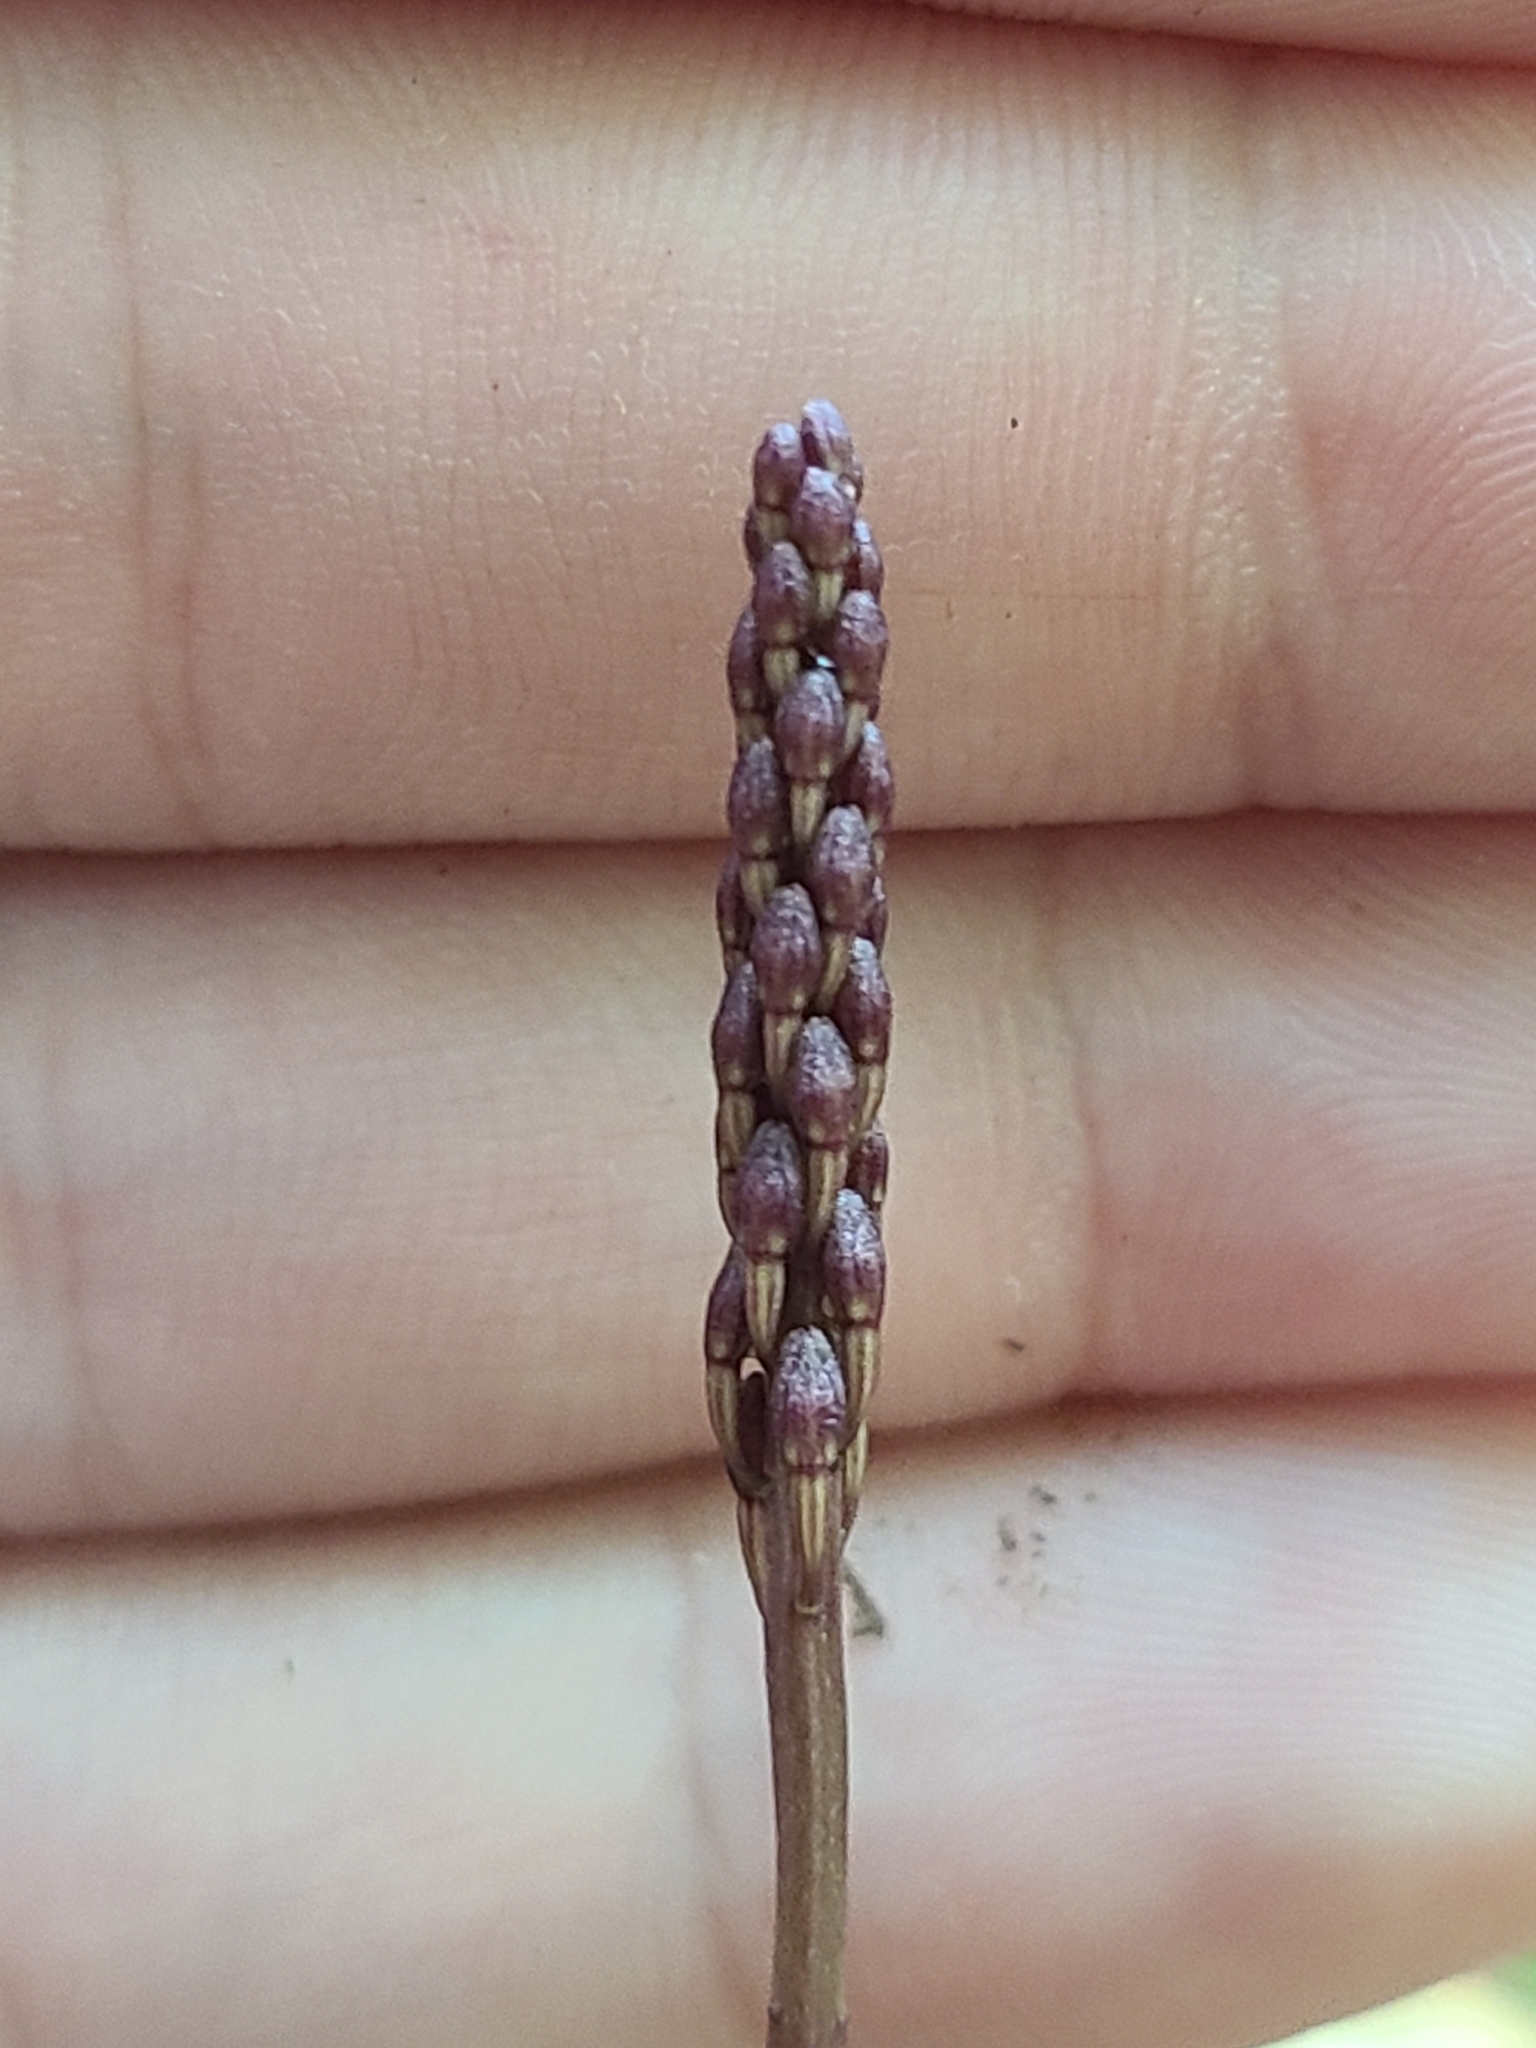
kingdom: Plantae
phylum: Tracheophyta
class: Liliopsida
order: Asparagales
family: Orchidaceae
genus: Tipularia
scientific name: Tipularia discolor
